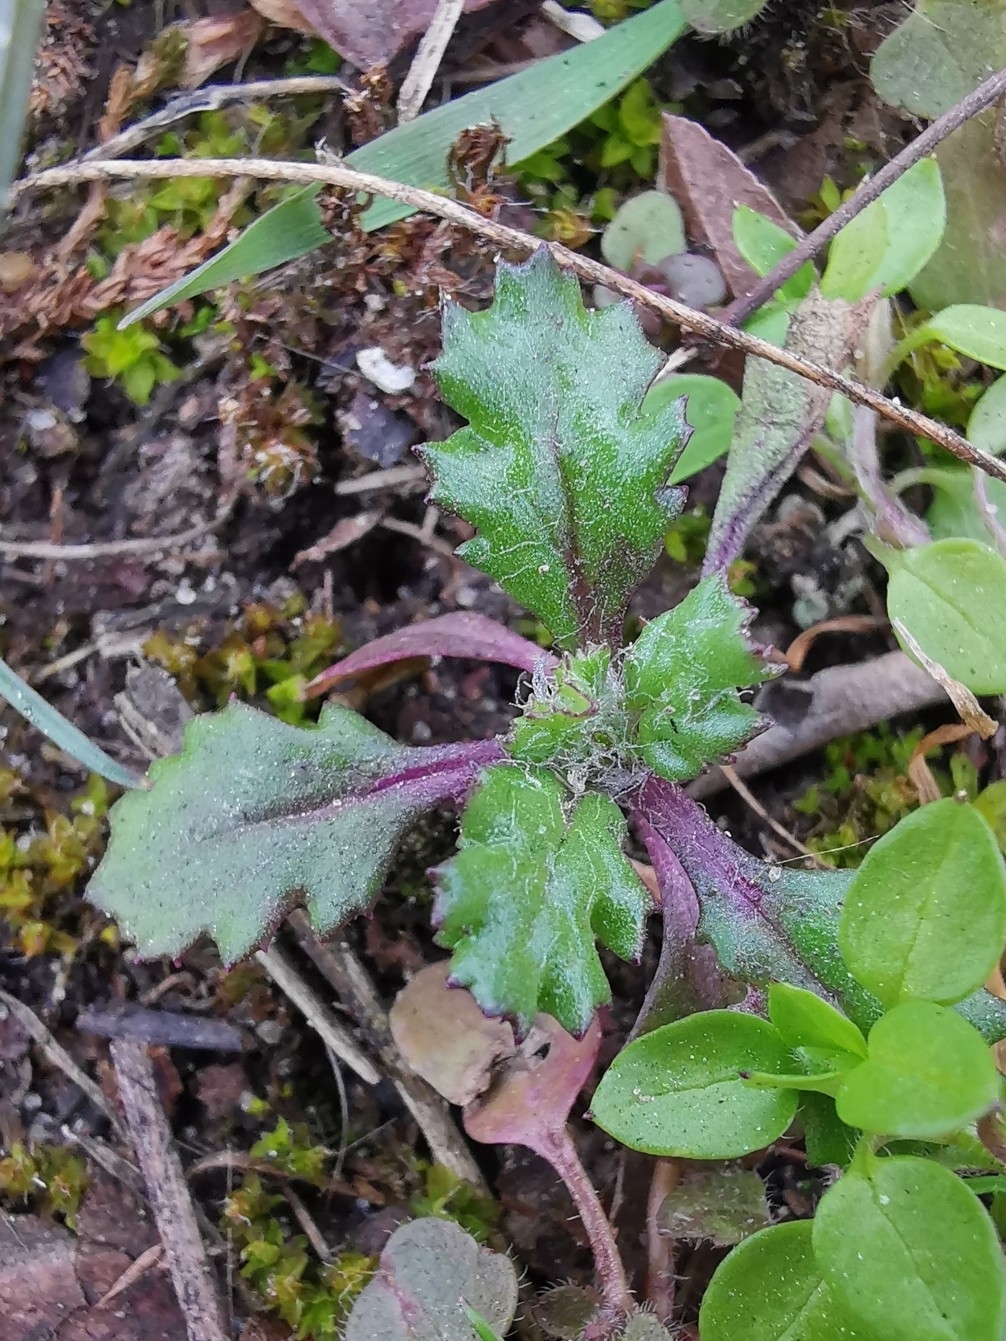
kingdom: Plantae
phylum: Tracheophyta
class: Magnoliopsida
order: Asterales
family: Asteraceae
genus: Senecio
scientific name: Senecio vulgaris
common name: Old-man-in-the-spring
